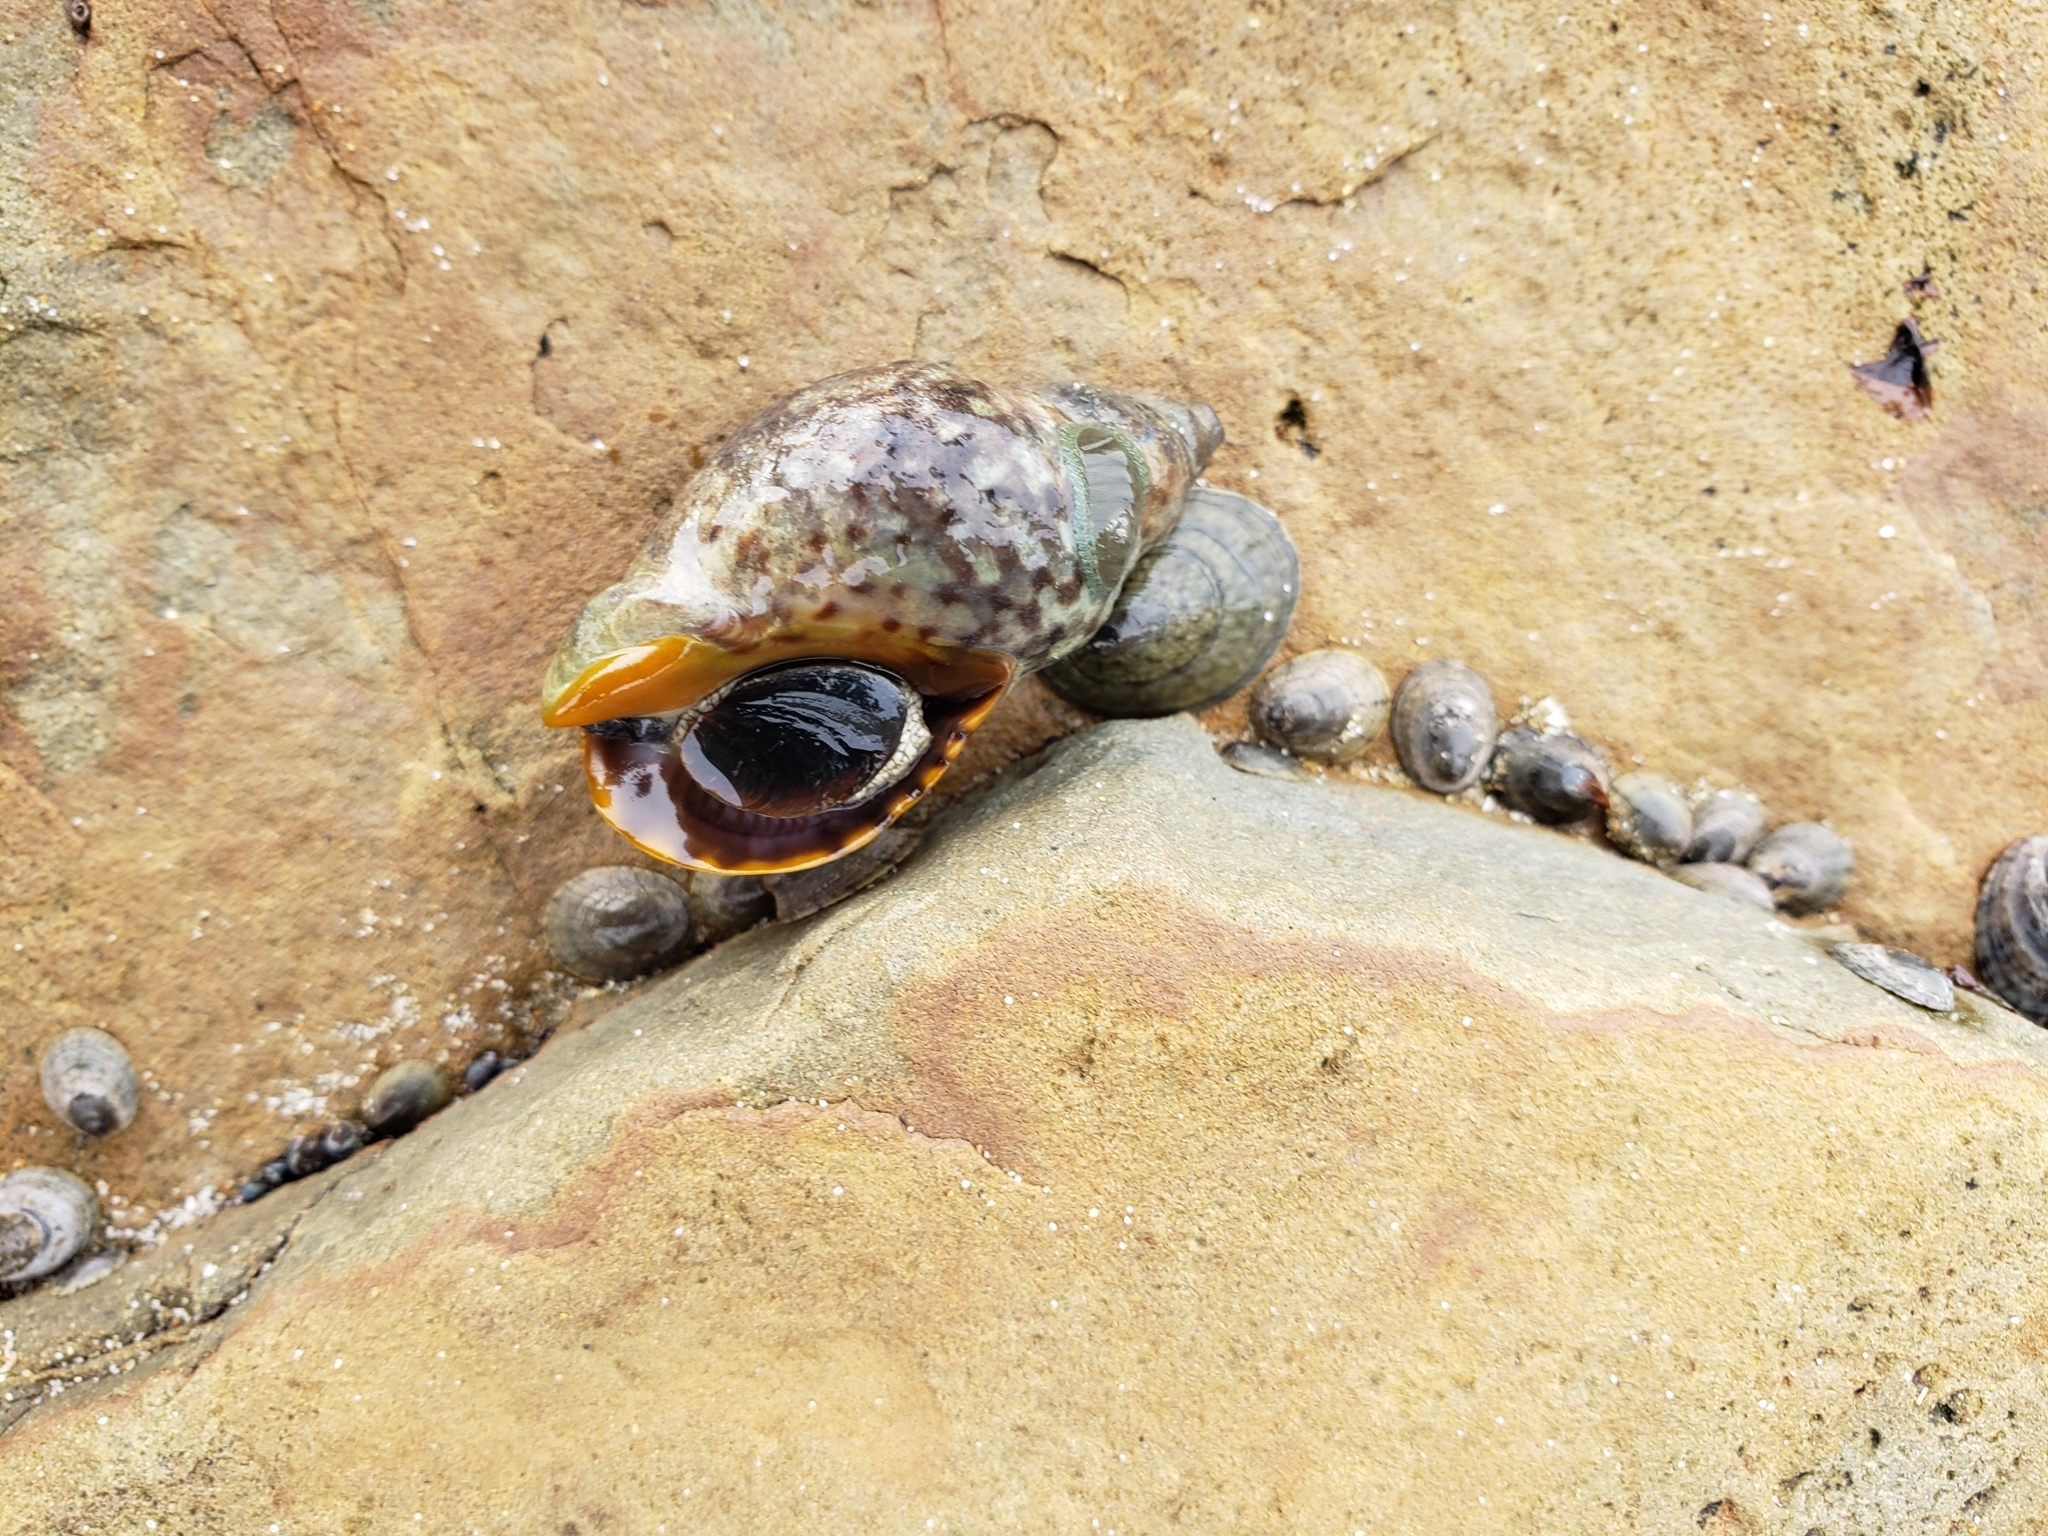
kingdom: Animalia
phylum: Mollusca
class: Gastropoda
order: Neogastropoda
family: Cominellidae
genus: Cominella
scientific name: Cominella maculosa
